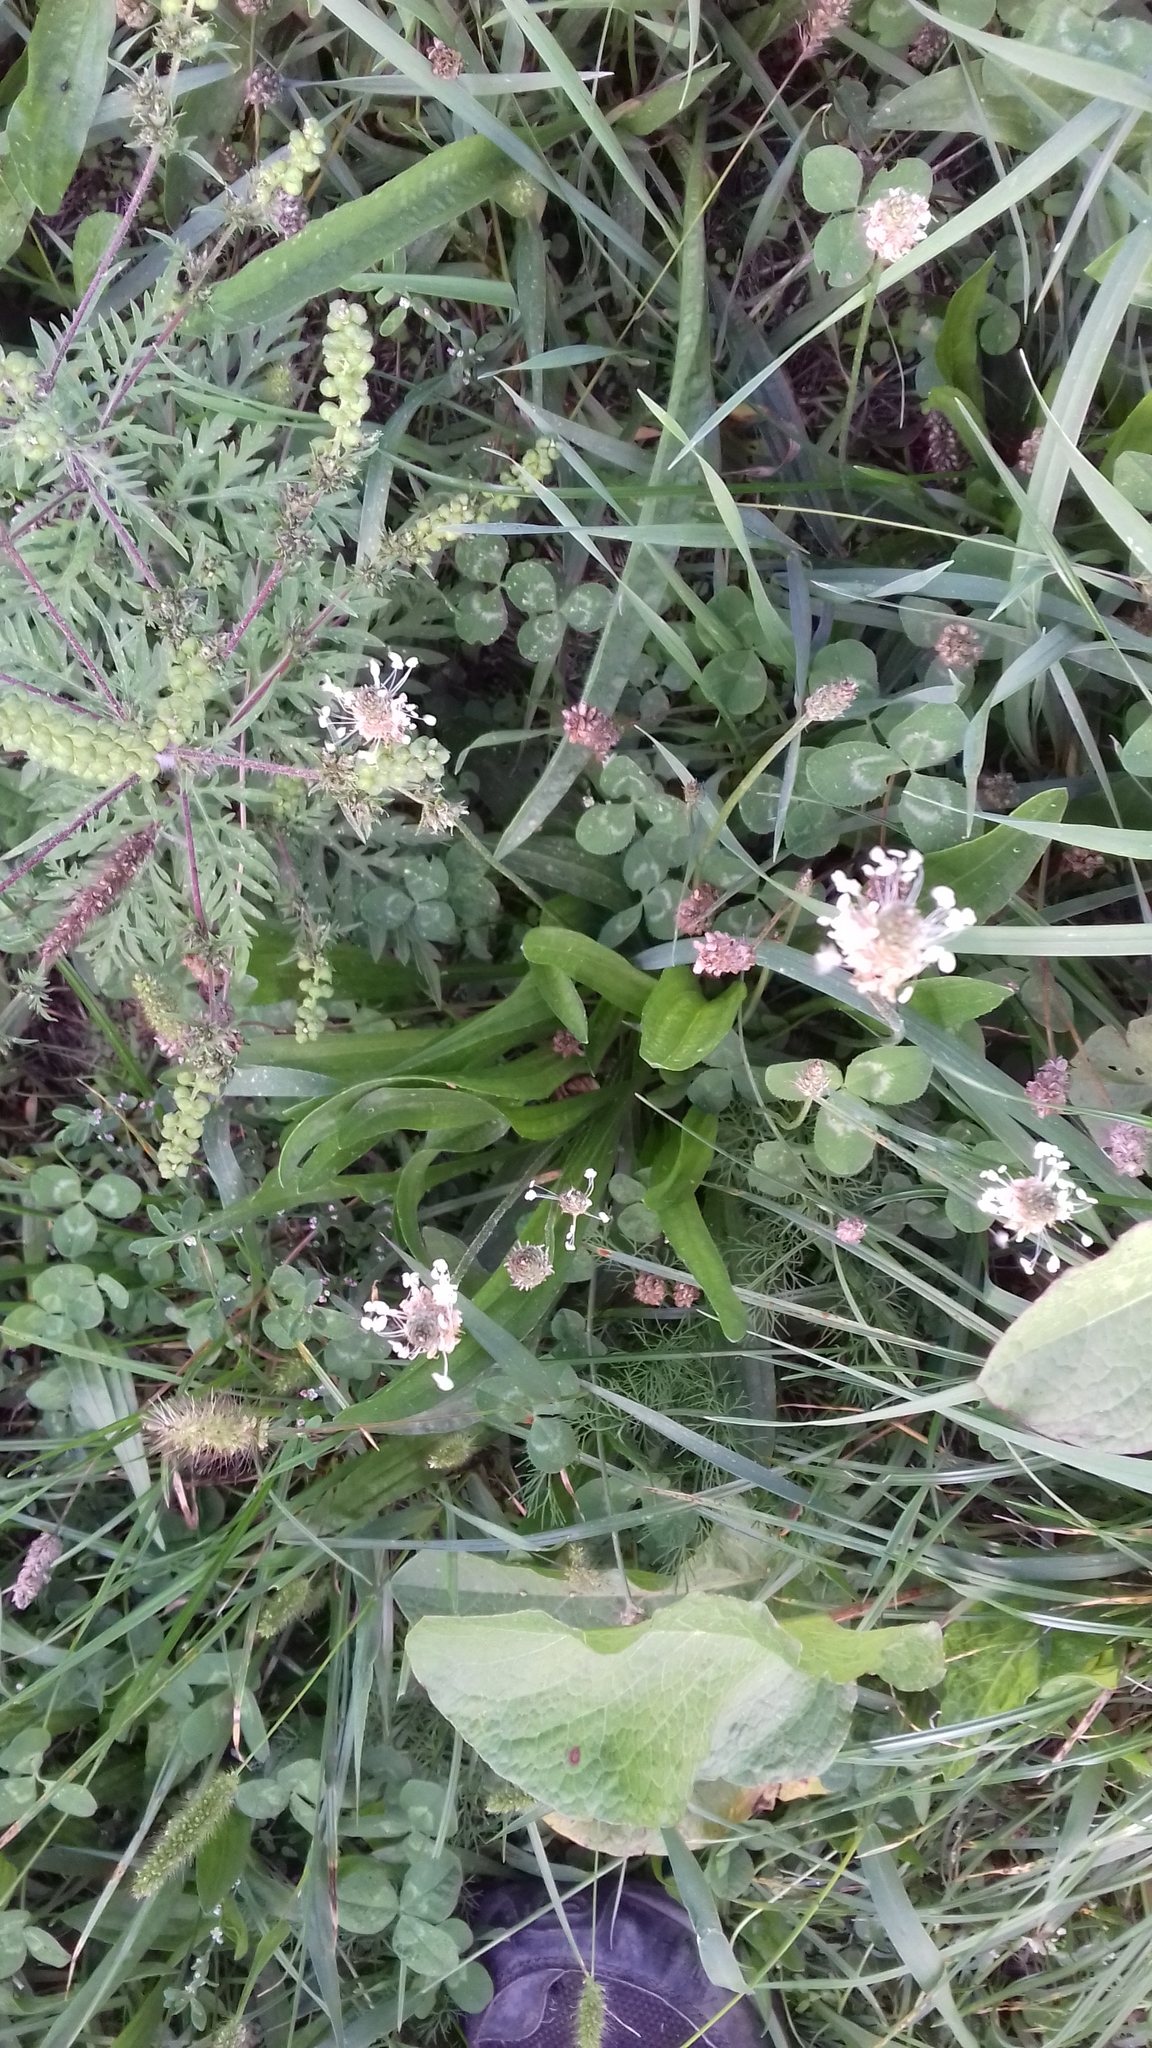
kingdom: Plantae
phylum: Tracheophyta
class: Magnoliopsida
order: Lamiales
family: Plantaginaceae
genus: Plantago
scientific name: Plantago lanceolata
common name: Ribwort plantain
